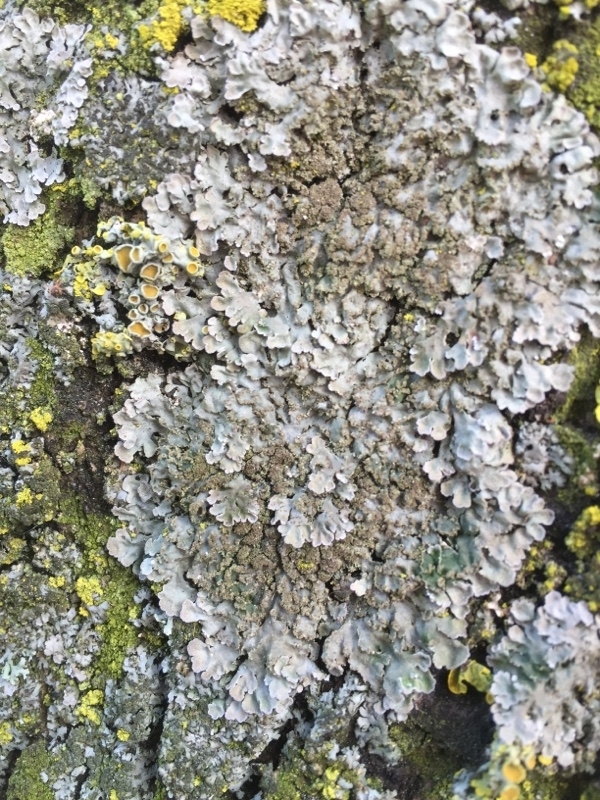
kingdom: Fungi
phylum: Ascomycota
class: Lecanoromycetes
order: Caliciales
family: Physciaceae
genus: Poeltonia
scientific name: Poeltonia grisea
